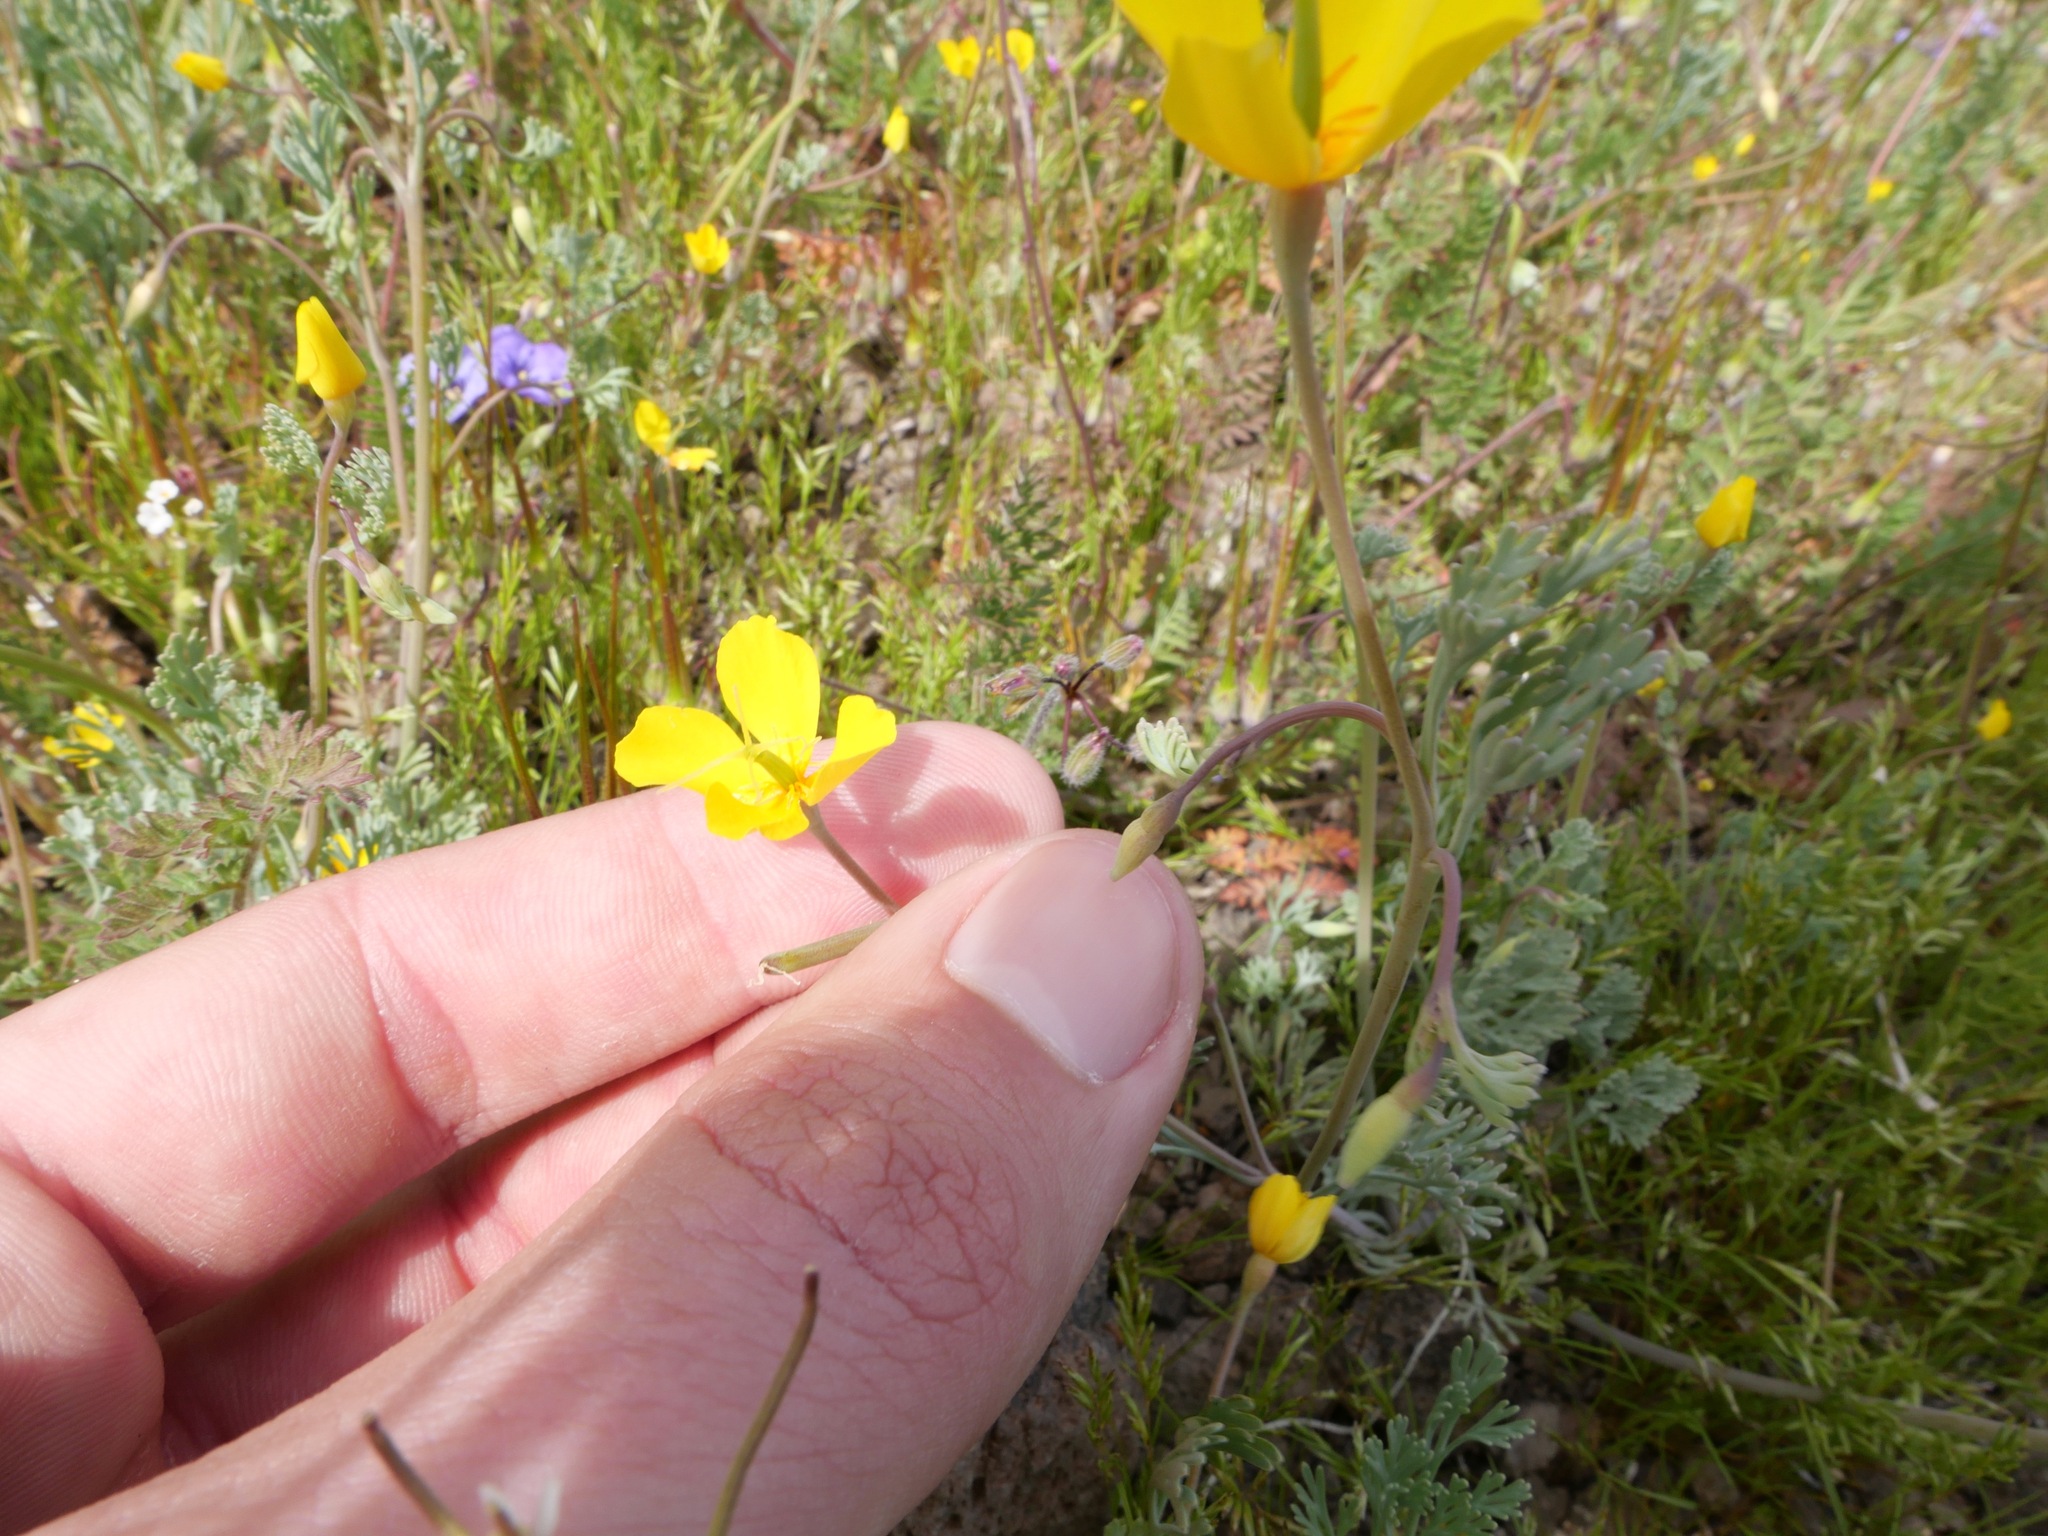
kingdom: Plantae
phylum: Tracheophyta
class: Magnoliopsida
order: Ranunculales
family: Papaveraceae
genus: Eschscholzia
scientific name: Eschscholzia minutiflora
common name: Small-flower california-poppy
